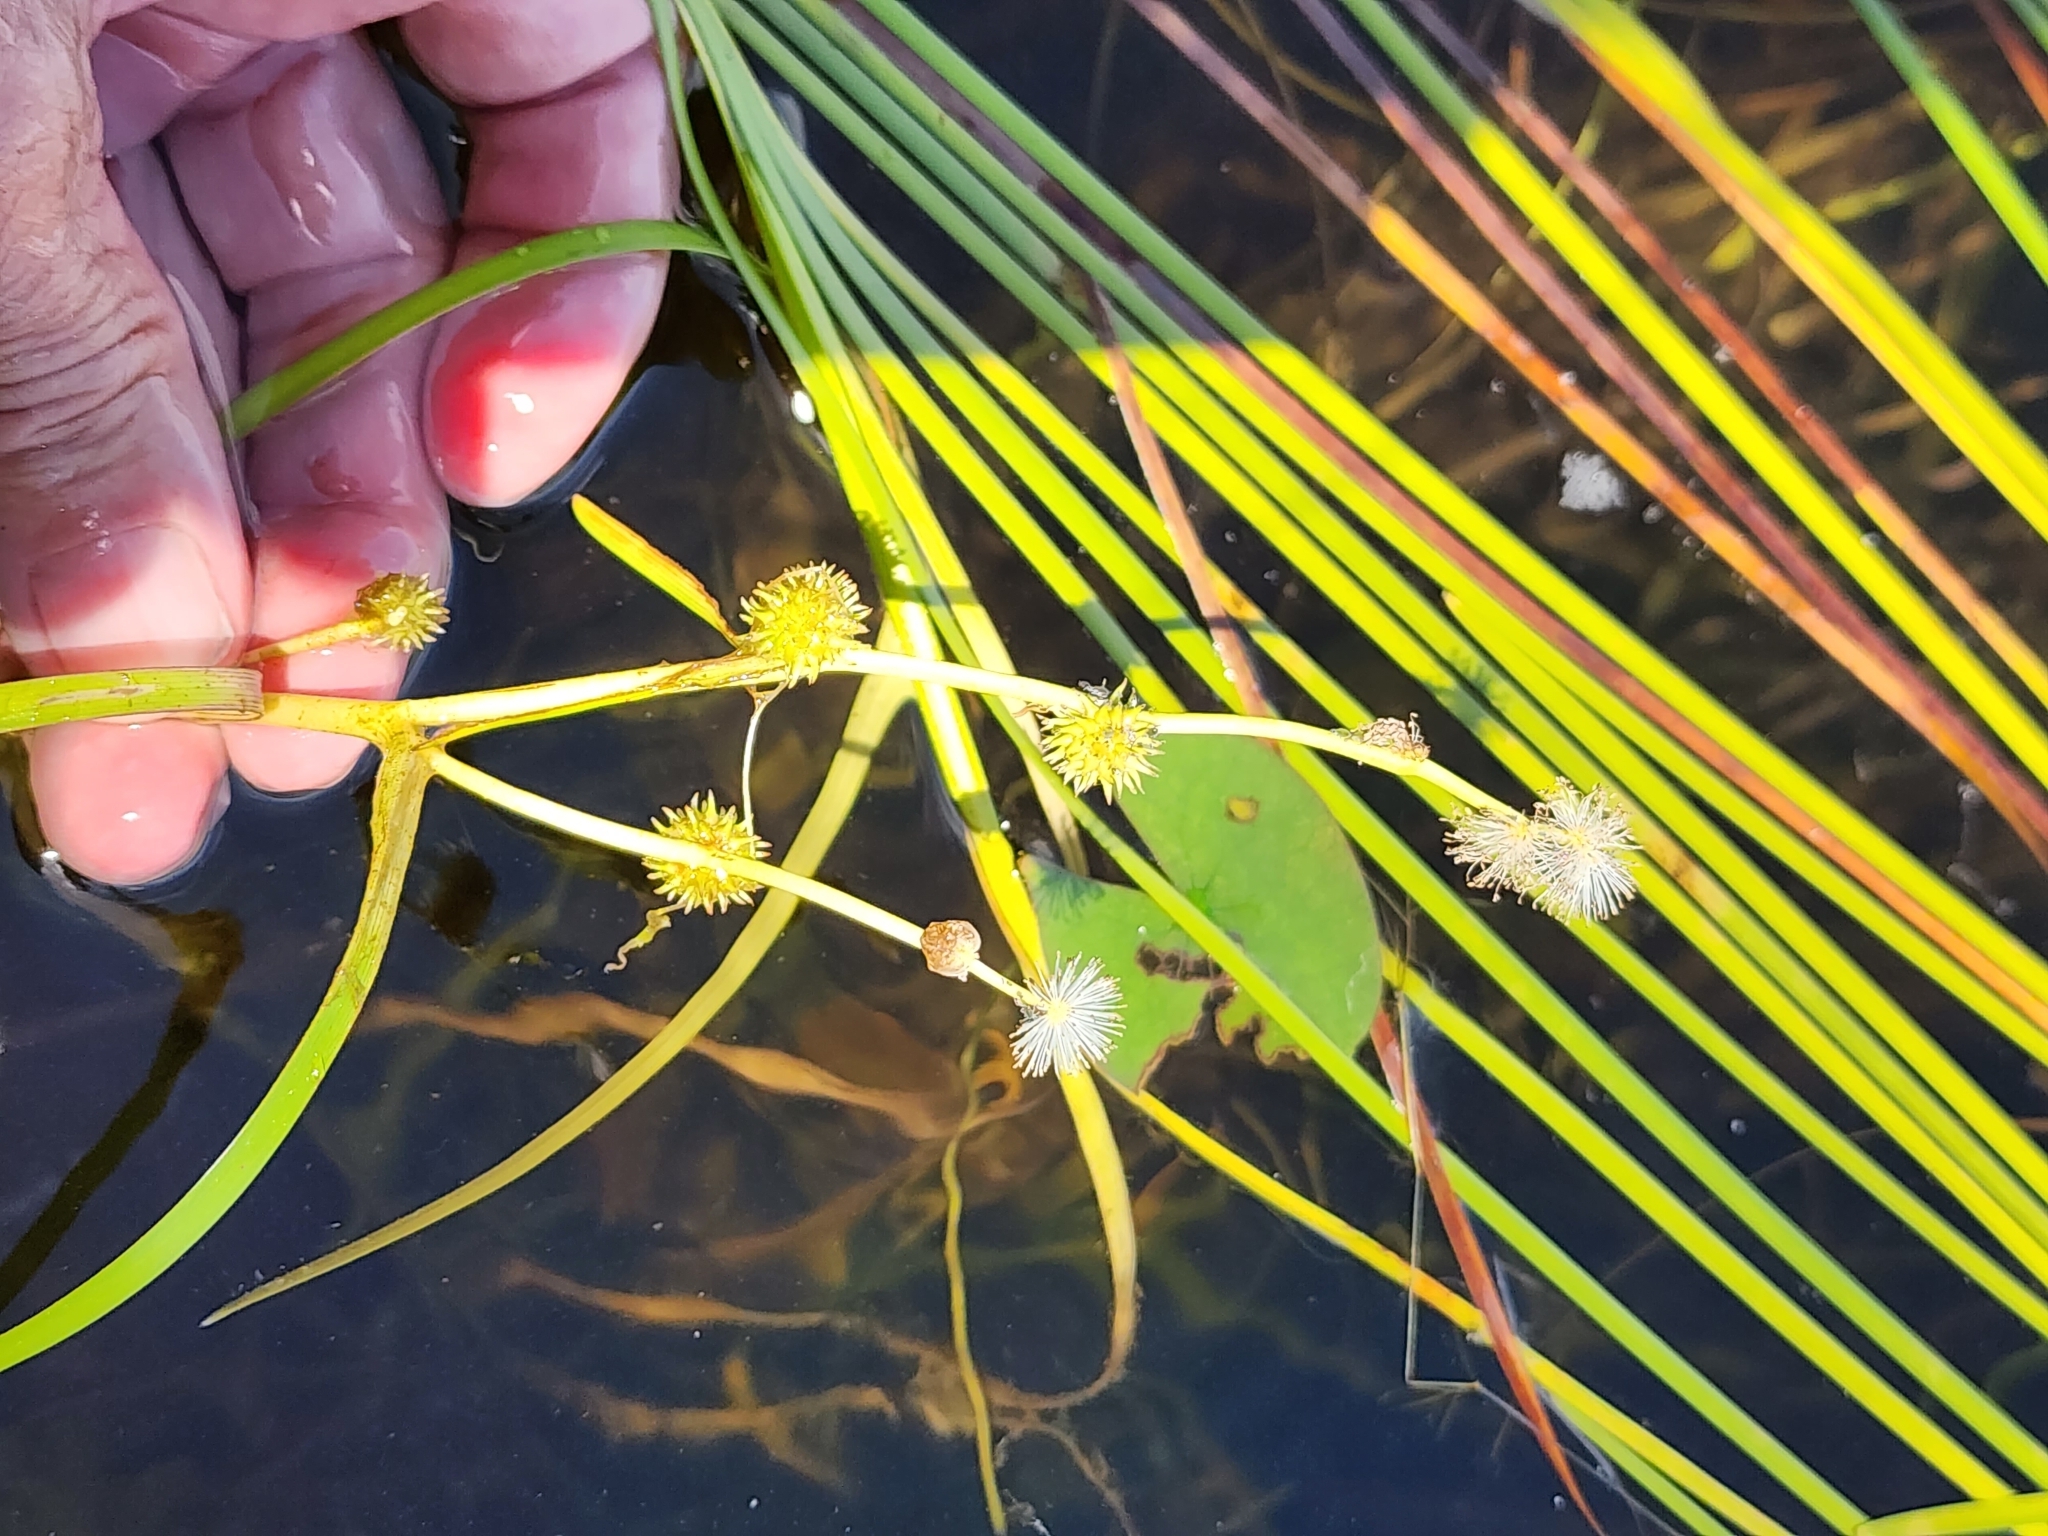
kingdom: Plantae
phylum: Tracheophyta
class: Liliopsida
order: Poales
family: Typhaceae
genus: Sparganium
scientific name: Sparganium angustifolium
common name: Floating bur-reed
